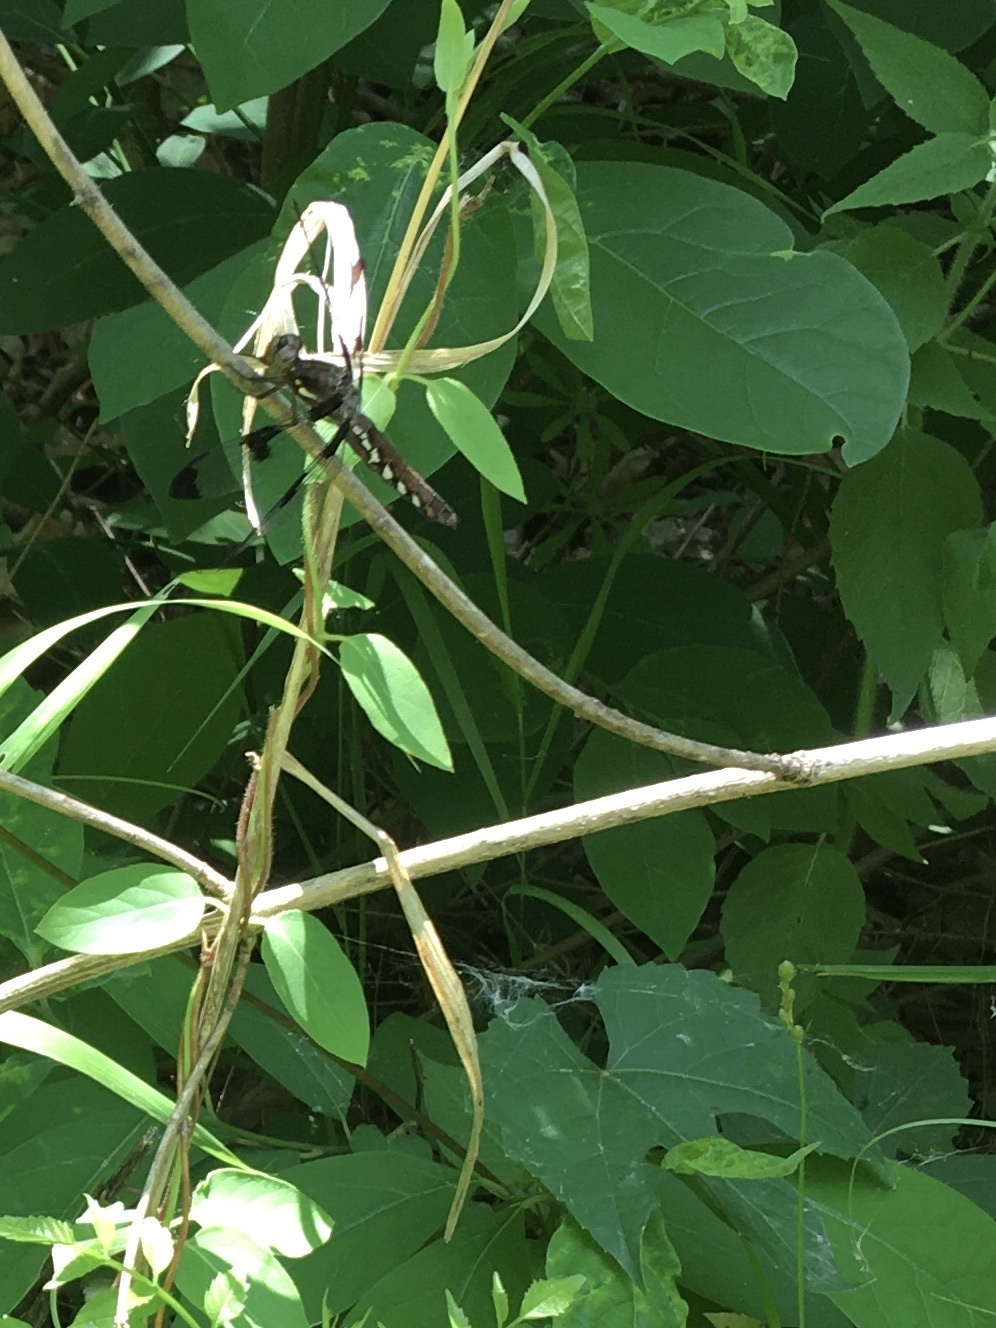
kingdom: Animalia
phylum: Arthropoda
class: Insecta
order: Odonata
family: Libellulidae
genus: Plathemis
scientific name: Plathemis lydia
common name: Common whitetail
